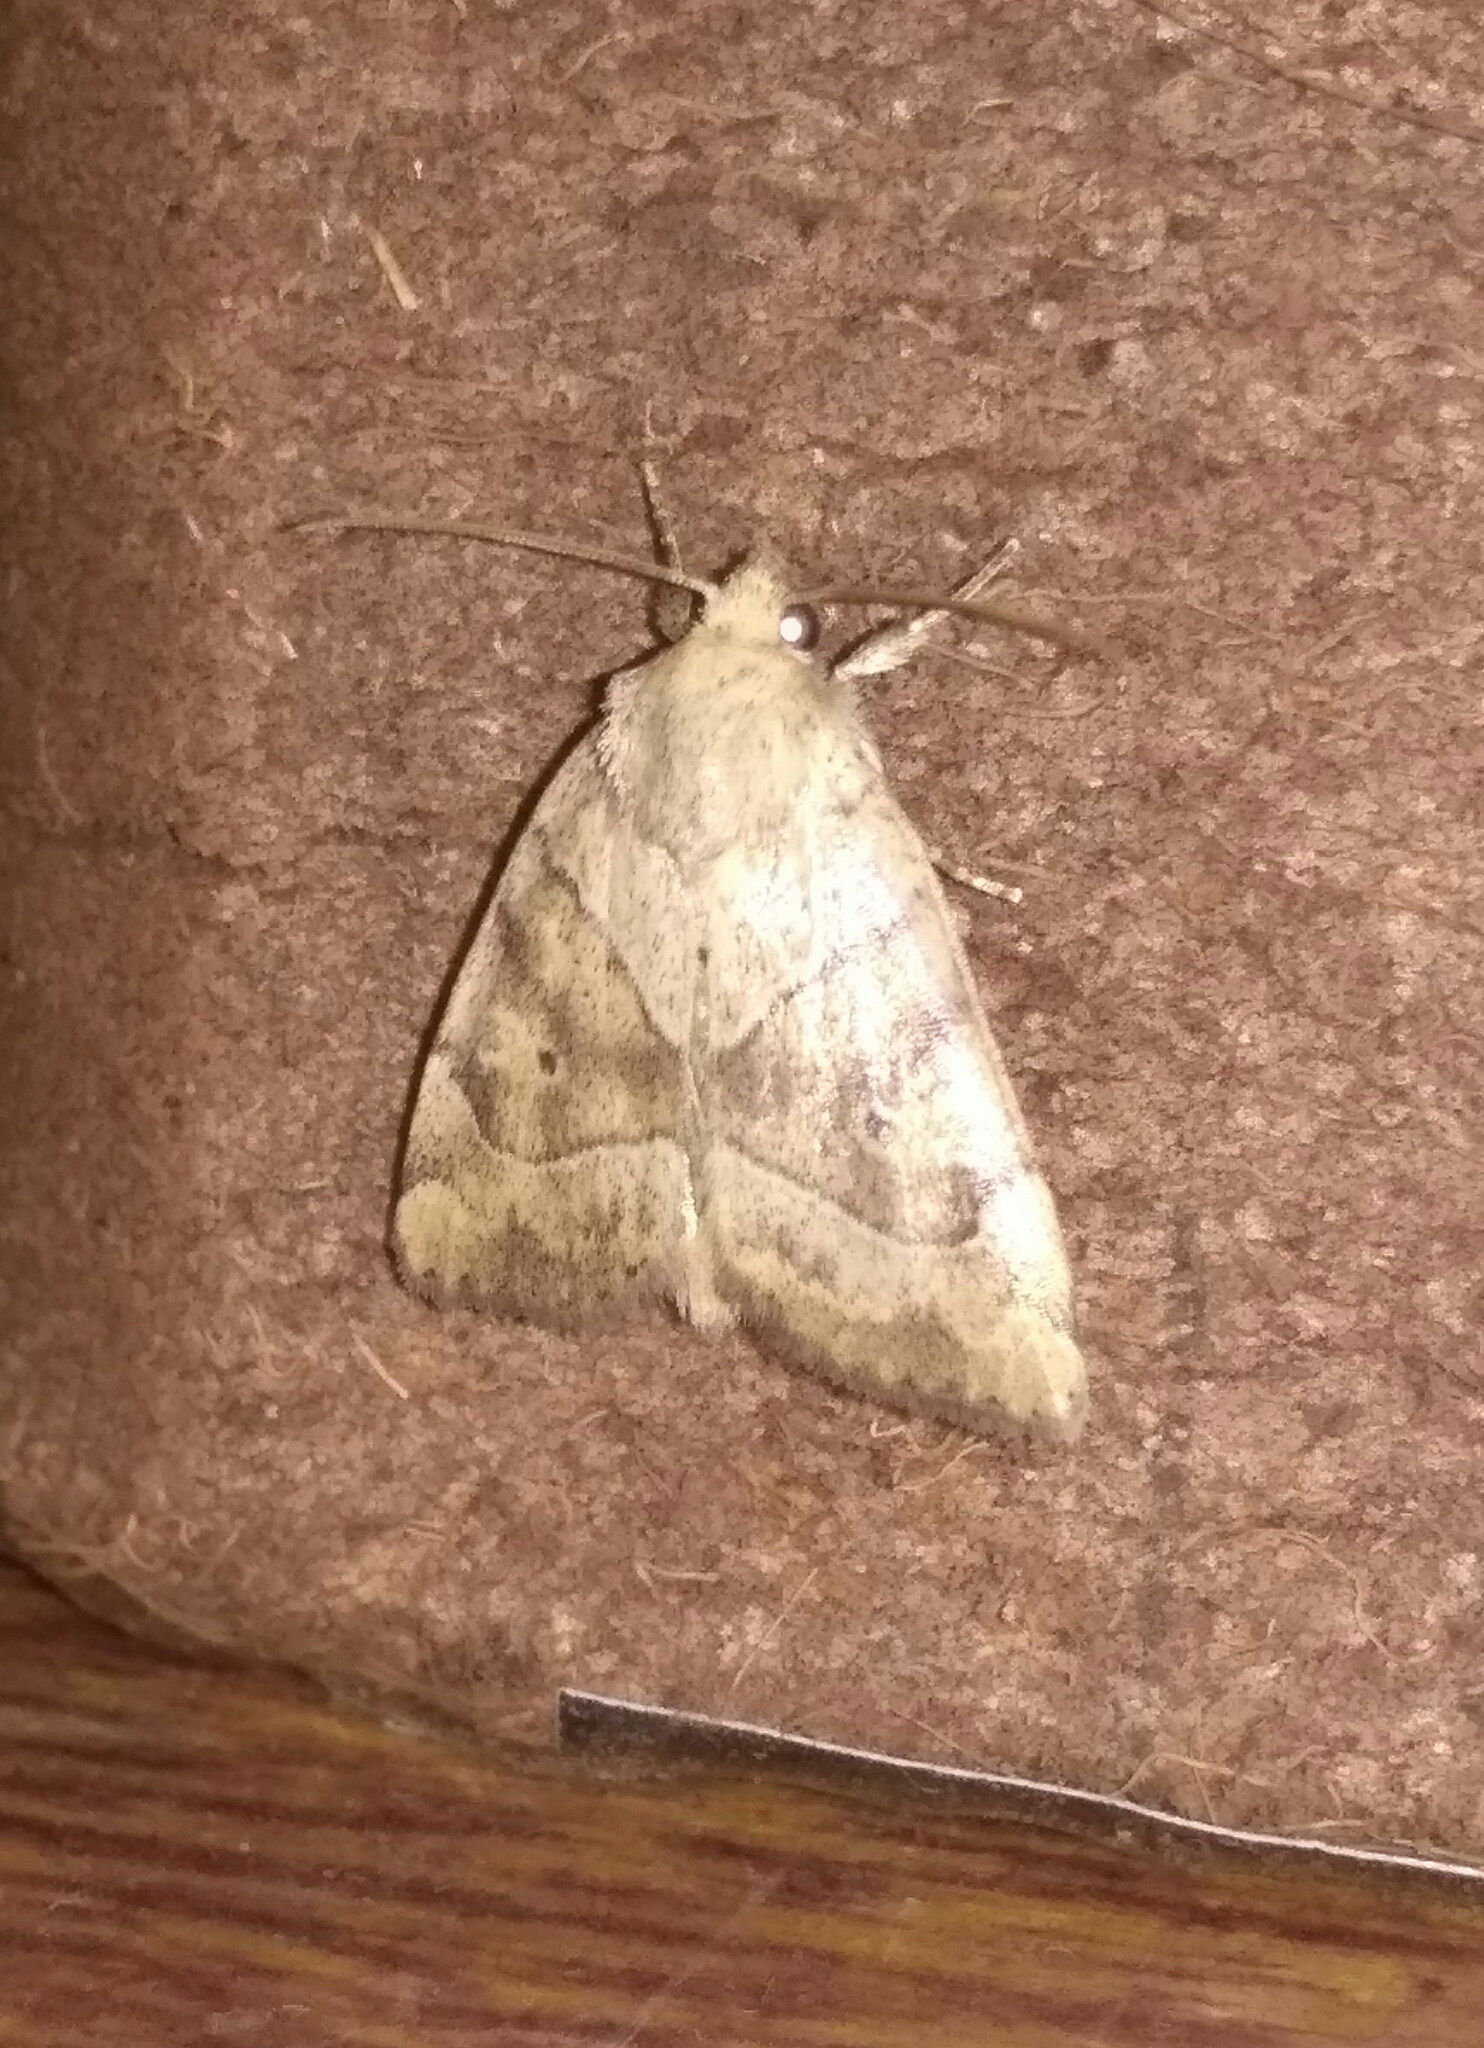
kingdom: Animalia
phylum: Arthropoda
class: Insecta
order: Lepidoptera
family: Noctuidae
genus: Cosmia
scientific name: Cosmia trapezina
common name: Dun-bar
